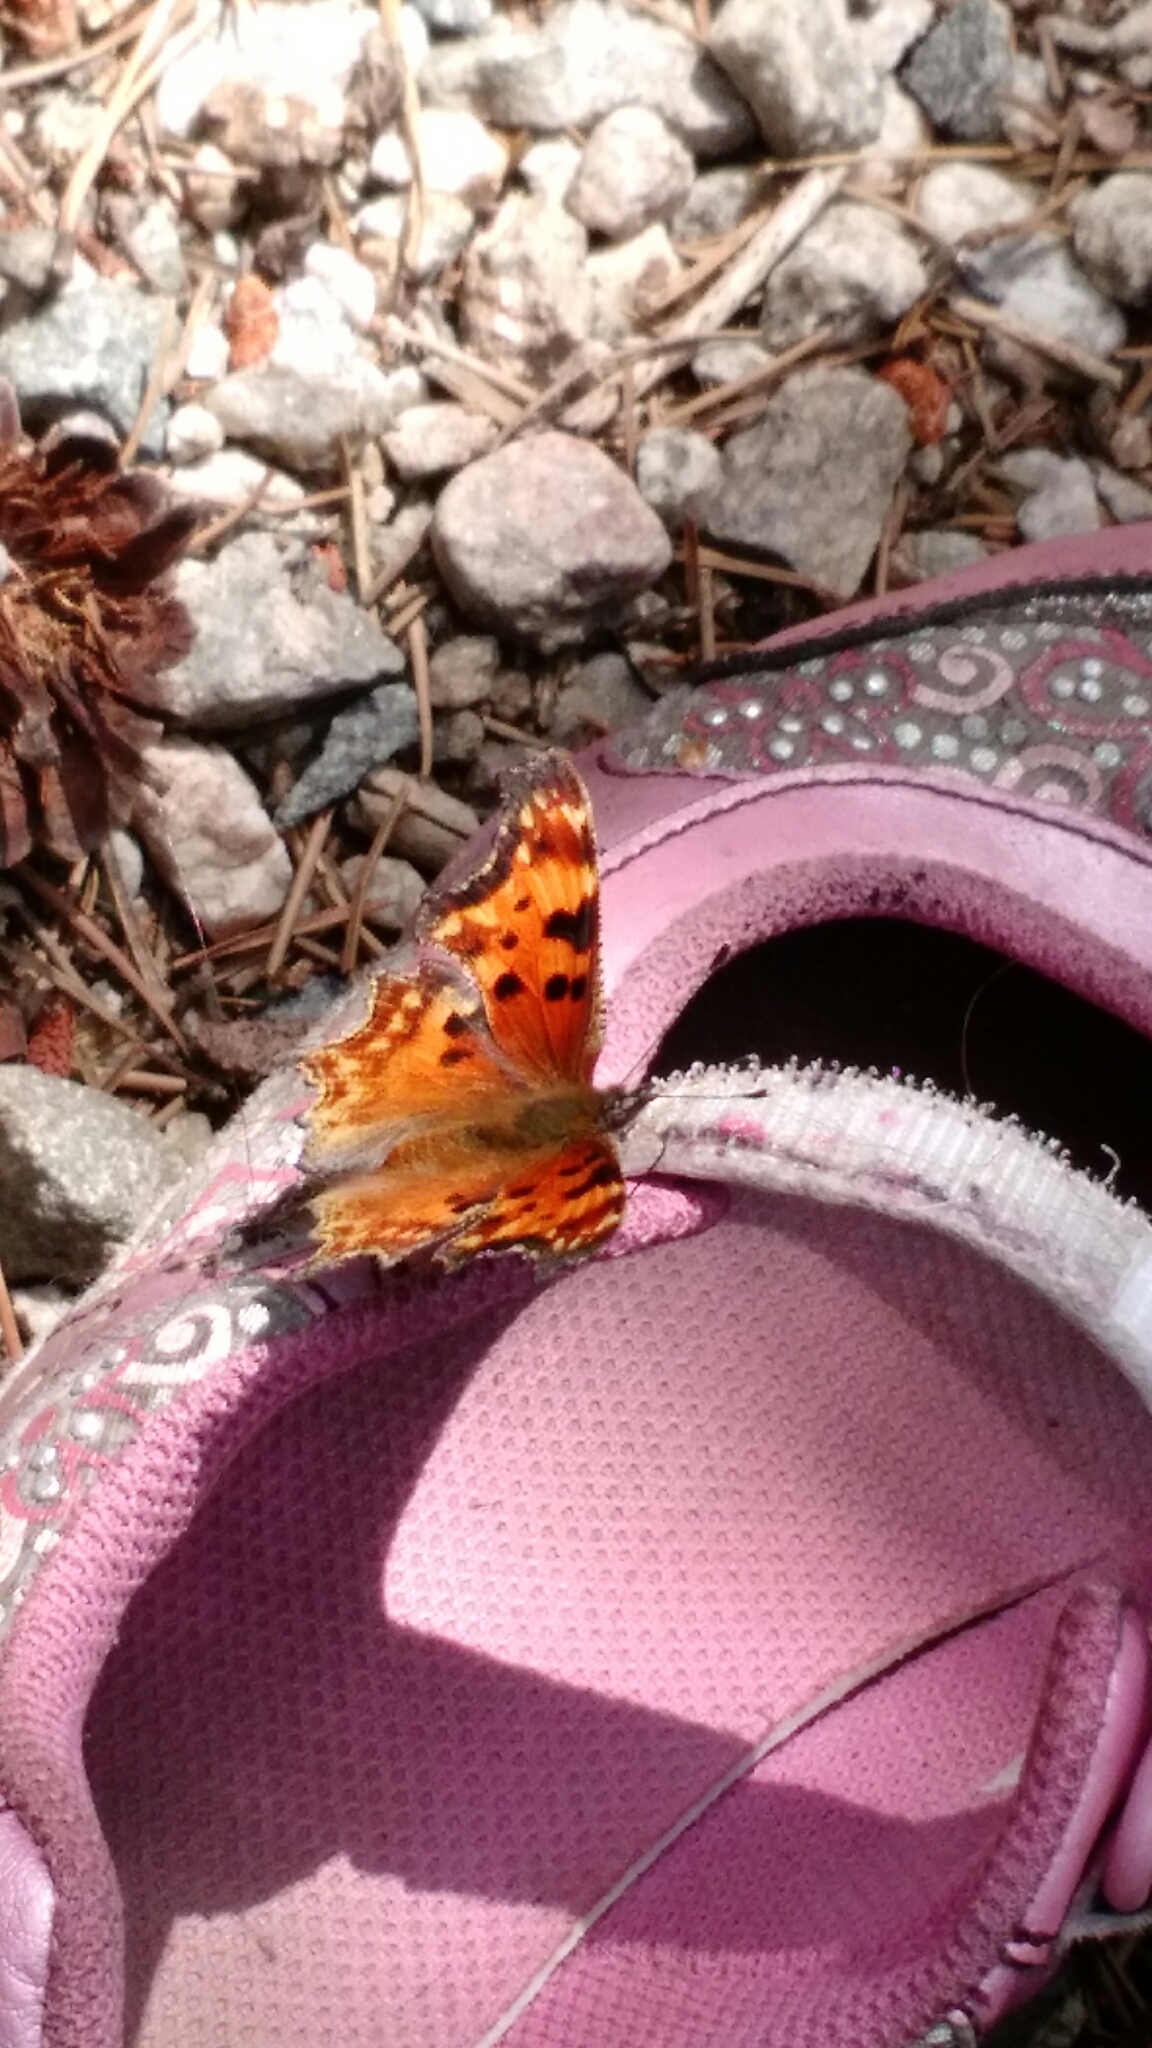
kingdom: Animalia
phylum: Arthropoda
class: Insecta
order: Lepidoptera
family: Nymphalidae
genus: Polygonia
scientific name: Polygonia gracilis
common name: Hoary comma
